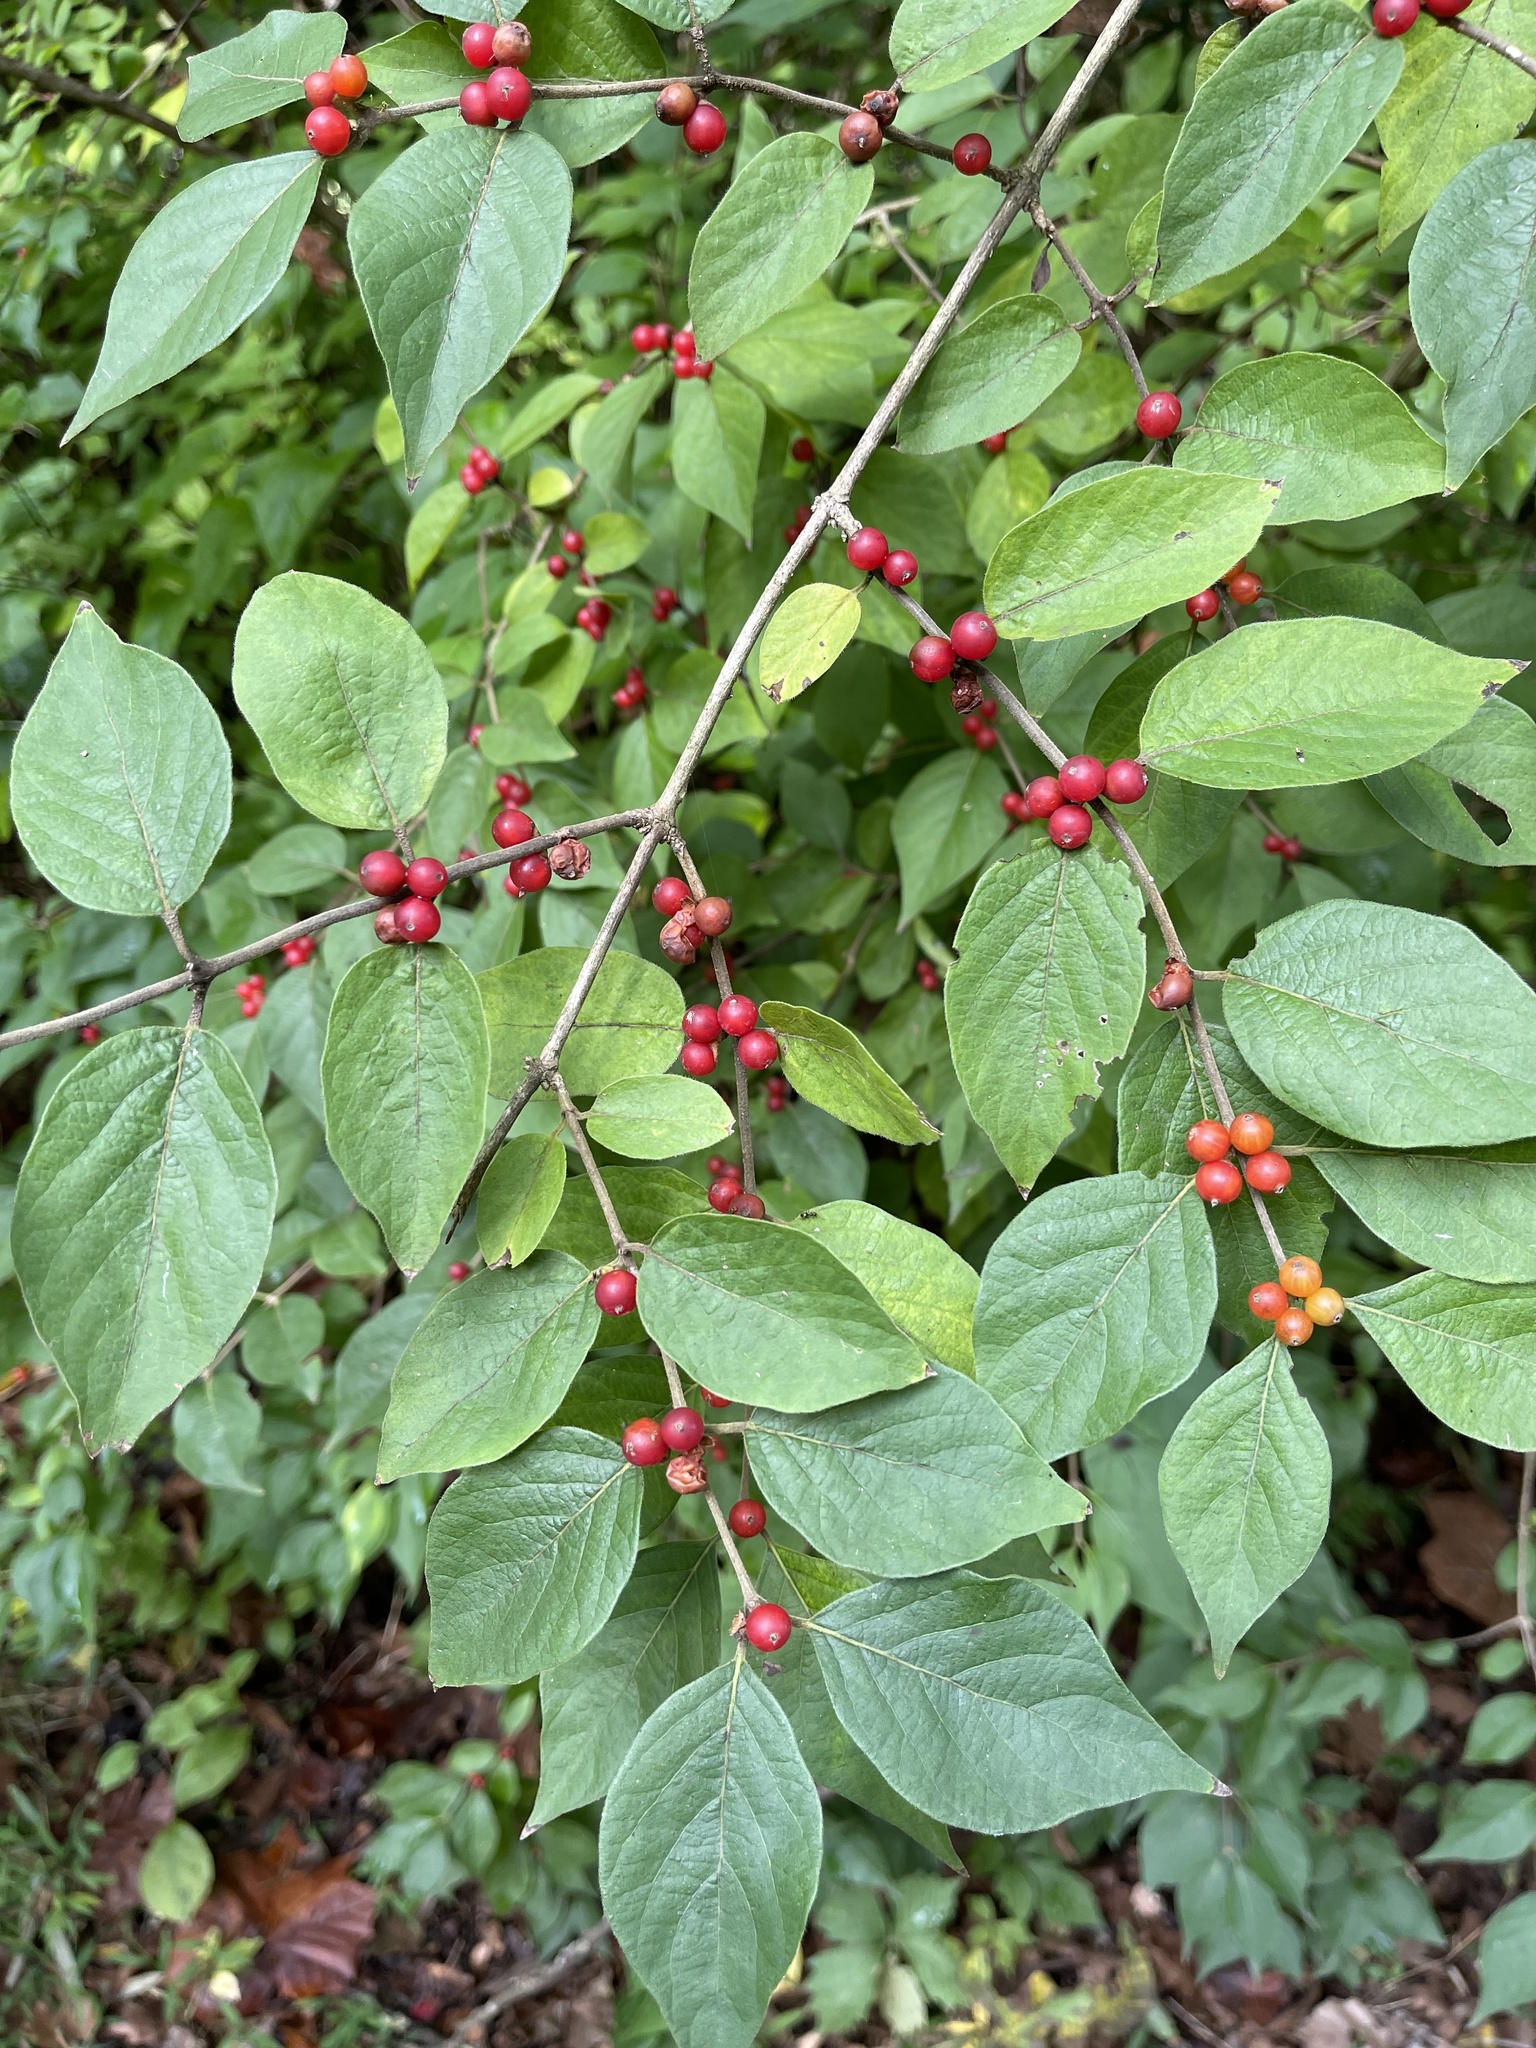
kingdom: Plantae
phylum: Tracheophyta
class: Magnoliopsida
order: Dipsacales
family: Caprifoliaceae
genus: Lonicera
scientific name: Lonicera maackii
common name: Amur honeysuckle
